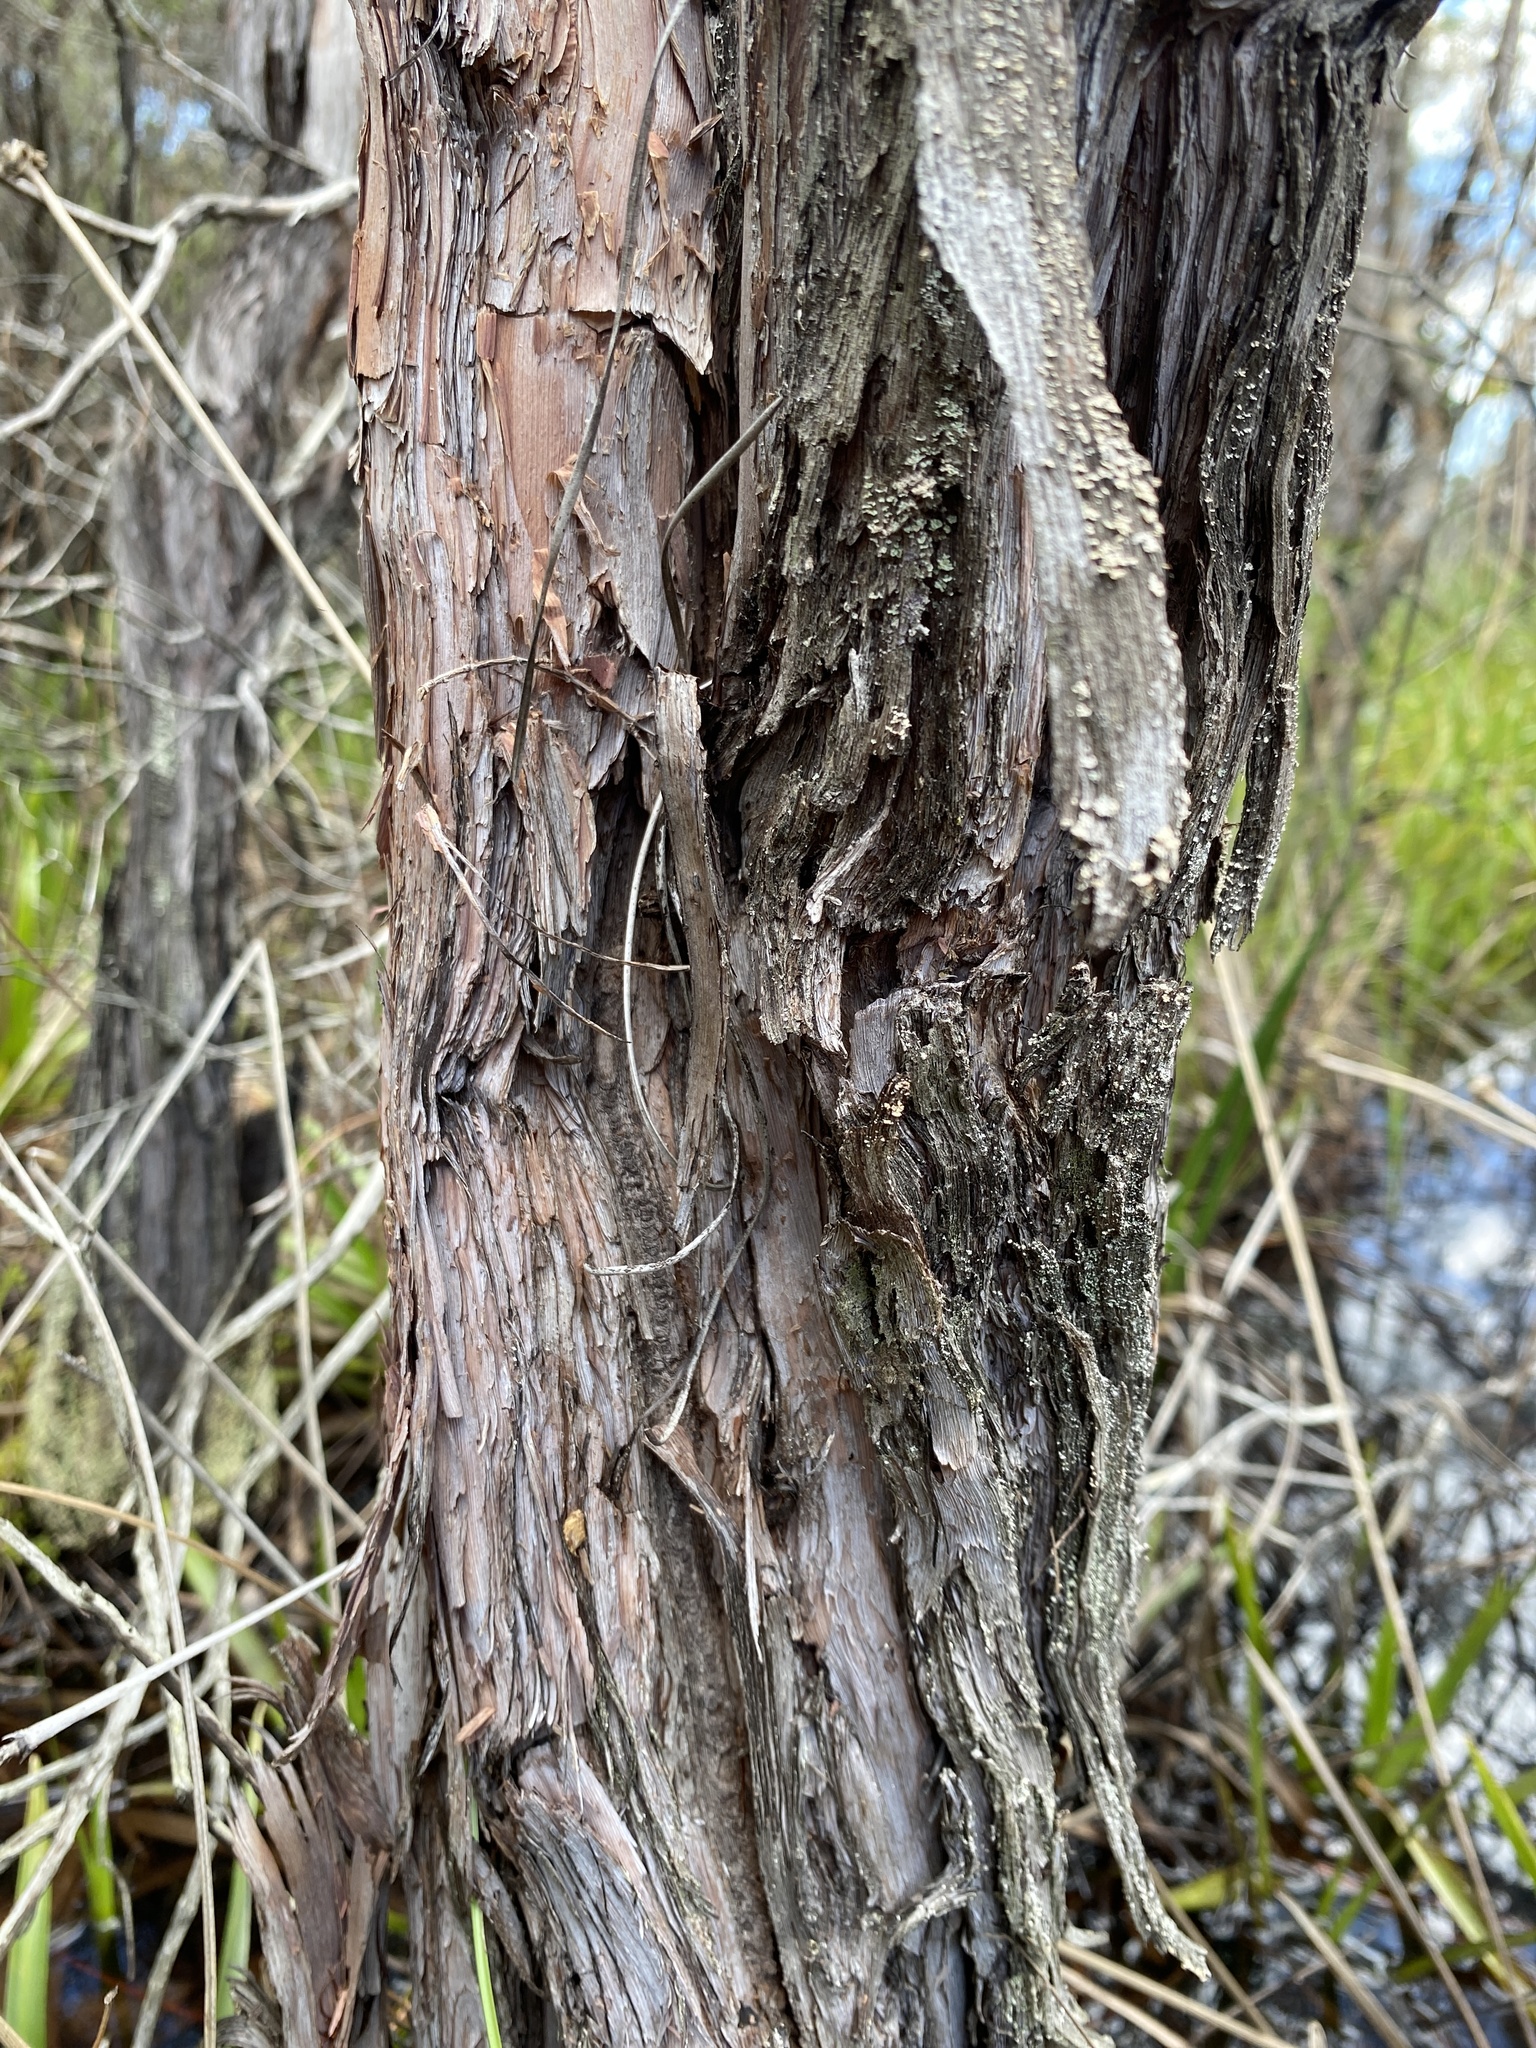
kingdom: Plantae
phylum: Tracheophyta
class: Magnoliopsida
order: Malpighiales
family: Hypericaceae
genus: Hypericum
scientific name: Hypericum chapmanii
